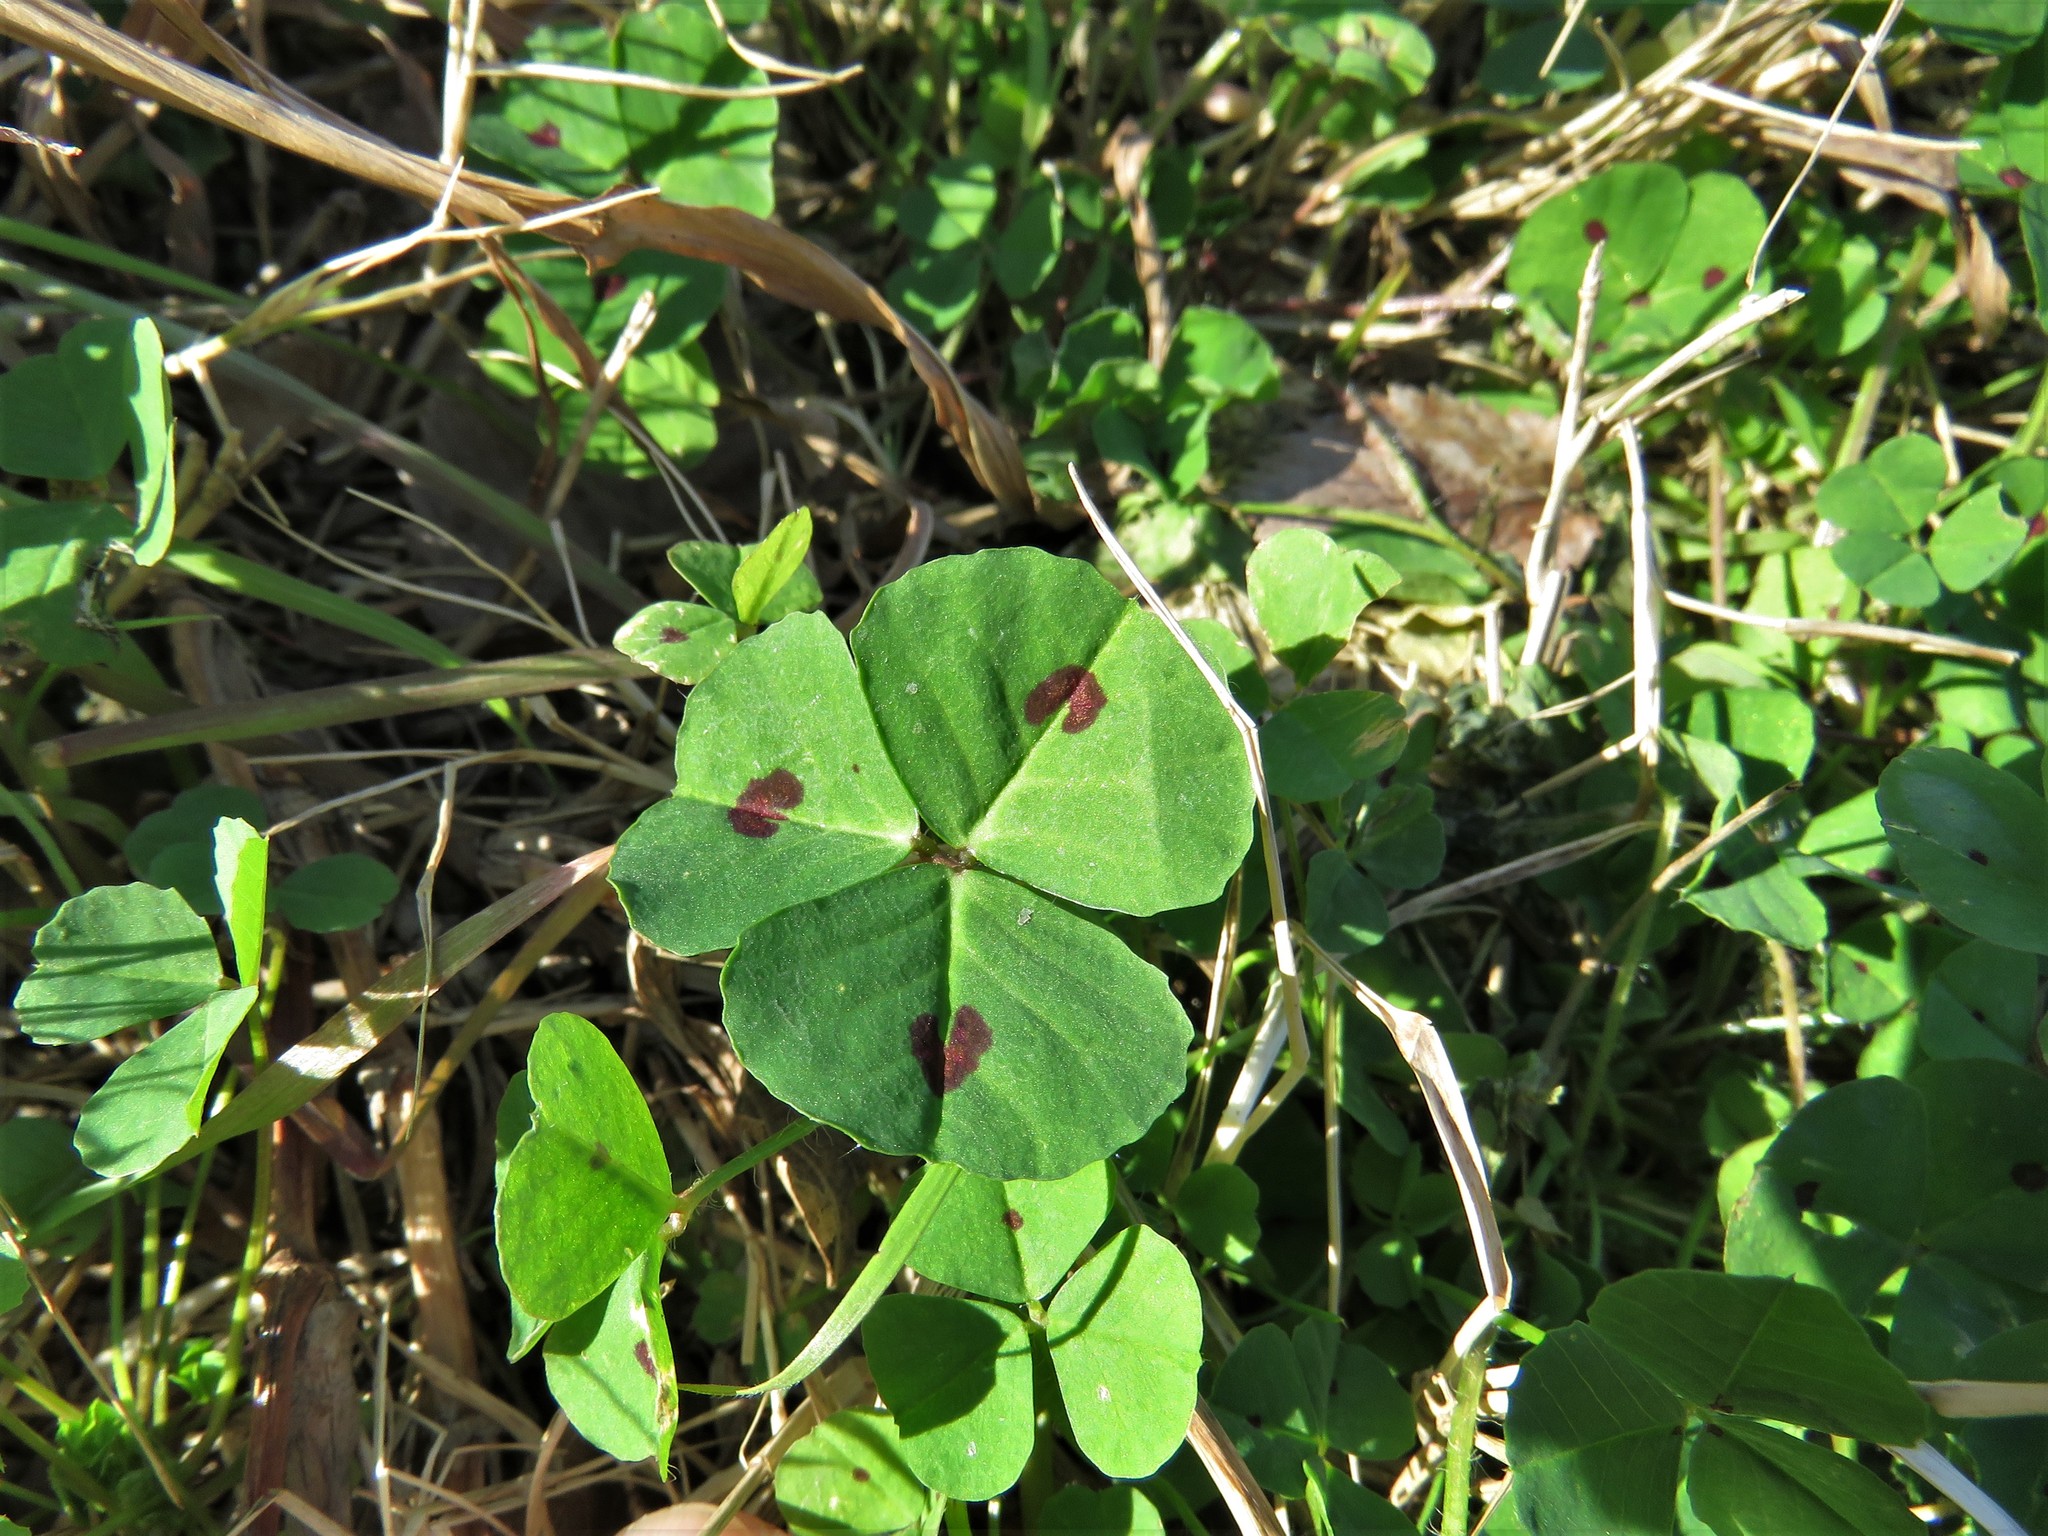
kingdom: Plantae
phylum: Tracheophyta
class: Magnoliopsida
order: Fabales
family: Fabaceae
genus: Medicago
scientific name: Medicago arabica
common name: Spotted medick
